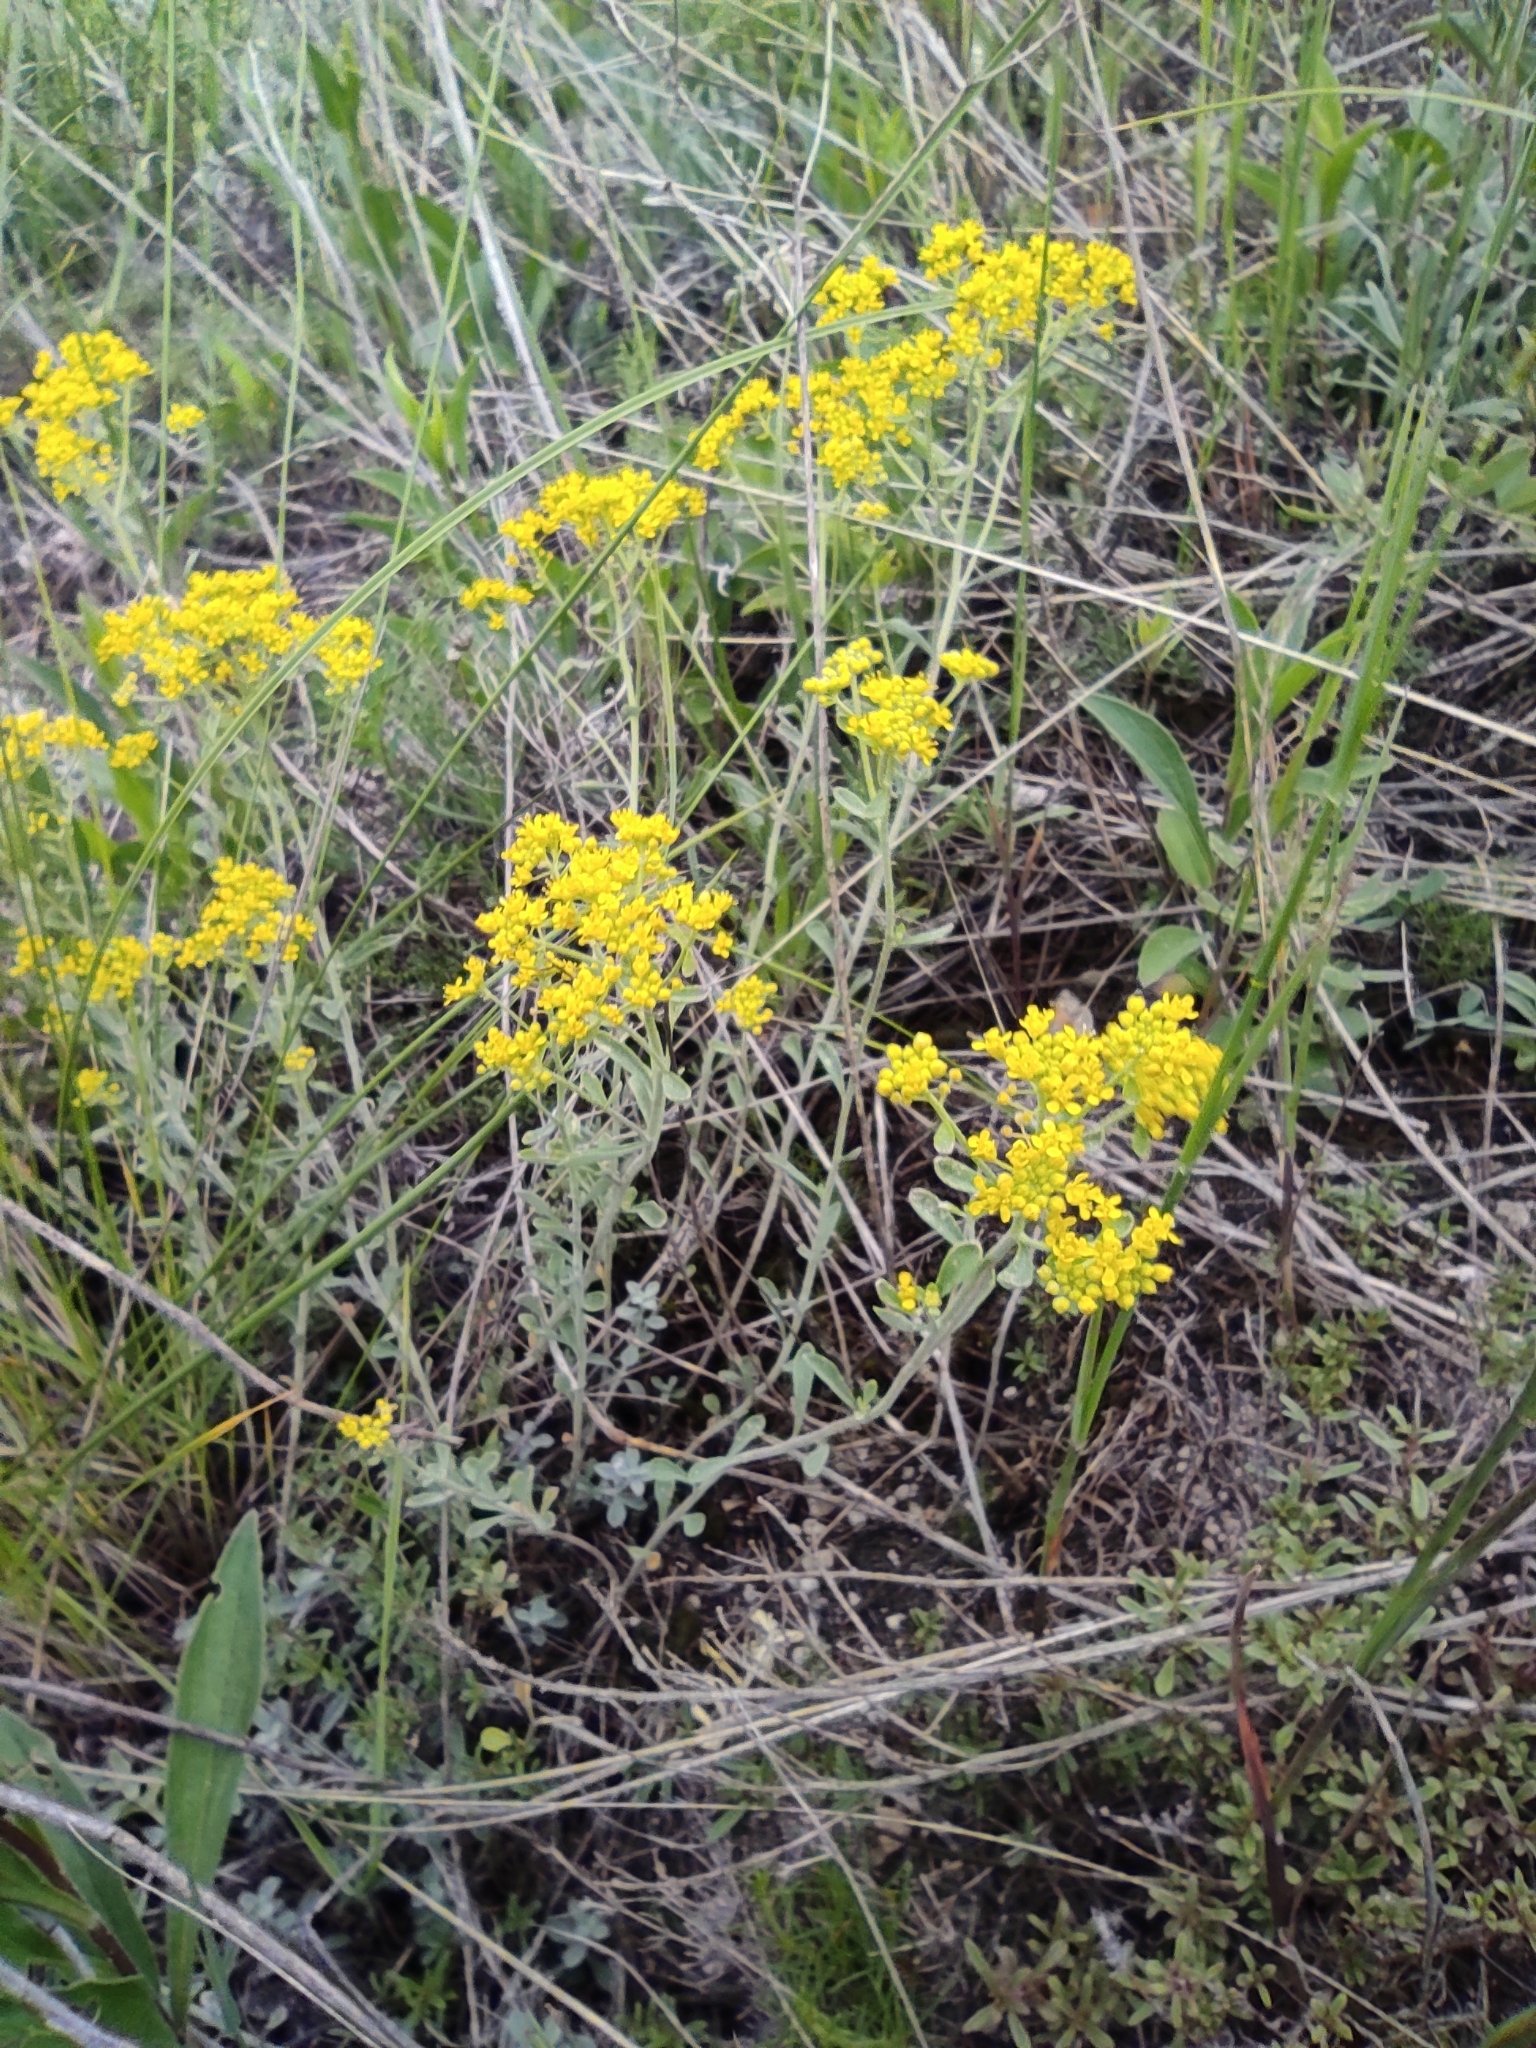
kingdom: Plantae
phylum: Tracheophyta
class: Magnoliopsida
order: Brassicales
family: Brassicaceae
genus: Odontarrhena
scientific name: Odontarrhena tortuosa
